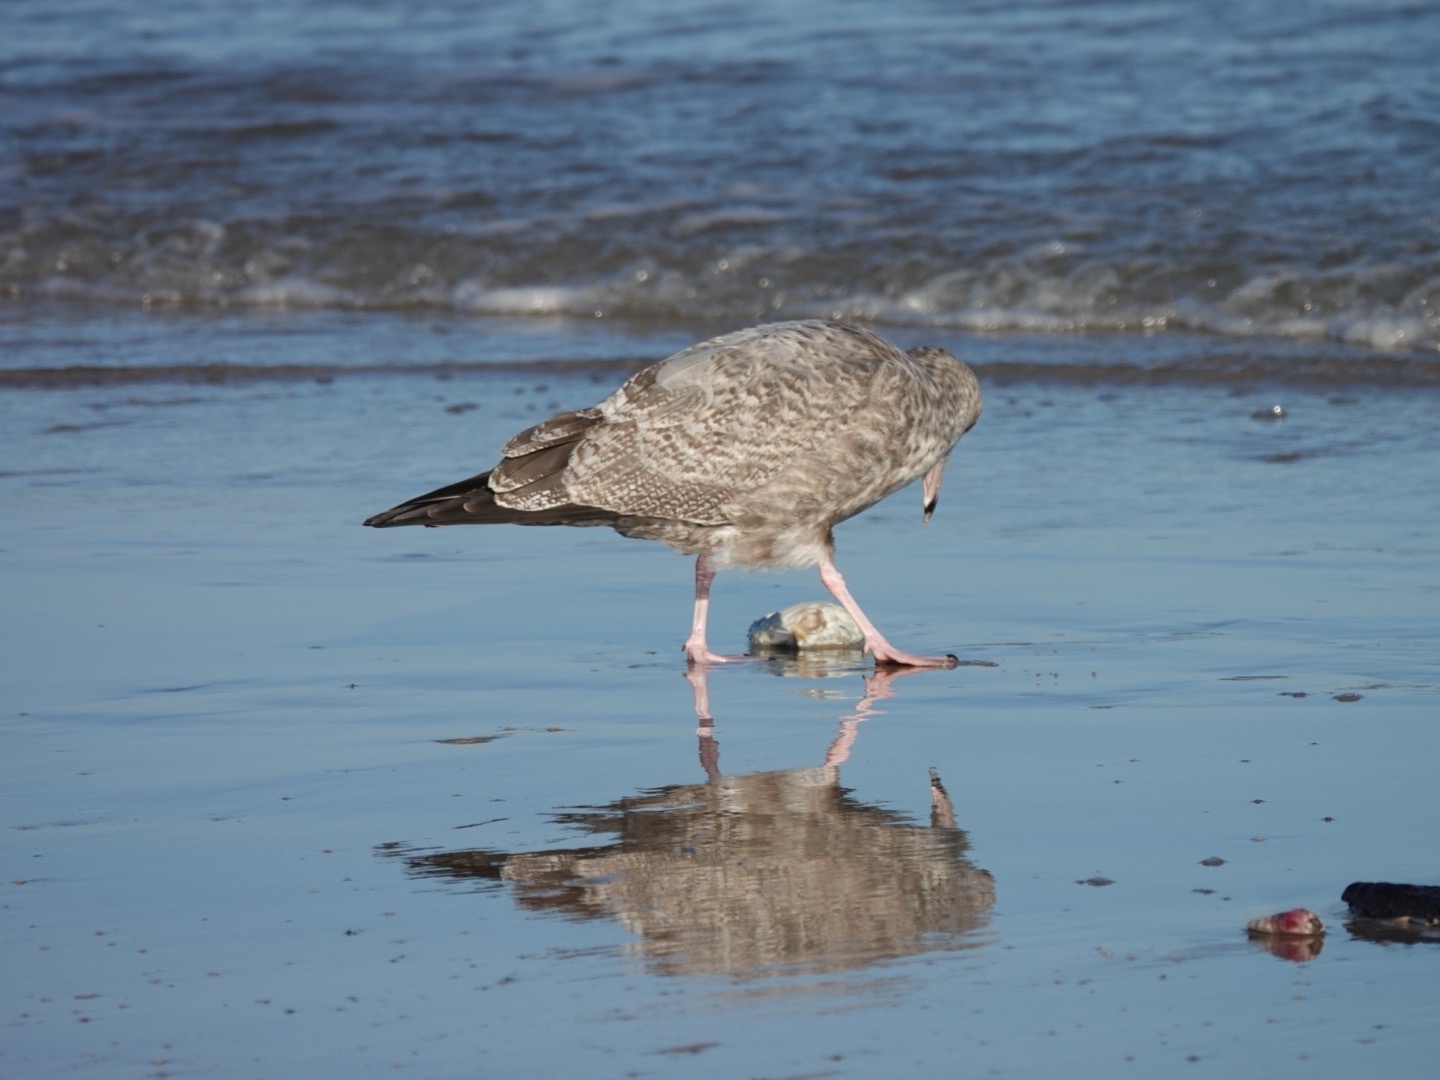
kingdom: Animalia
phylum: Chordata
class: Aves
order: Charadriiformes
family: Laridae
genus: Larus
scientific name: Larus argentatus
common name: Herring gull
